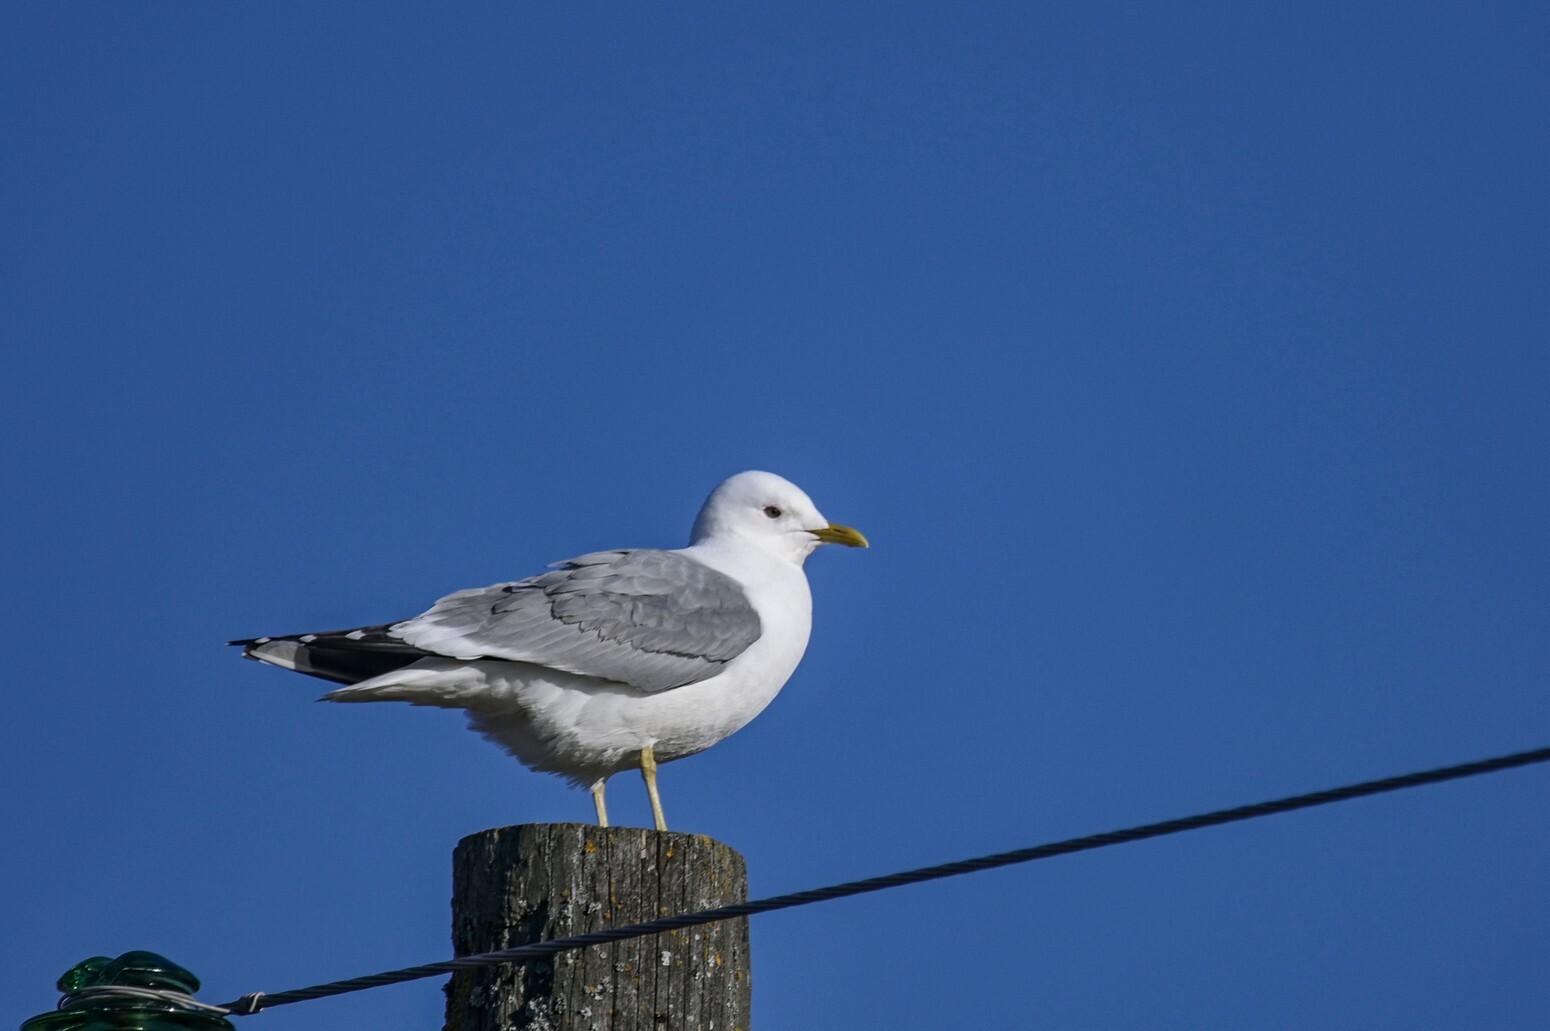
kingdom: Animalia
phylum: Chordata
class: Aves
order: Charadriiformes
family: Laridae
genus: Larus
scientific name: Larus canus
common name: Mew gull
